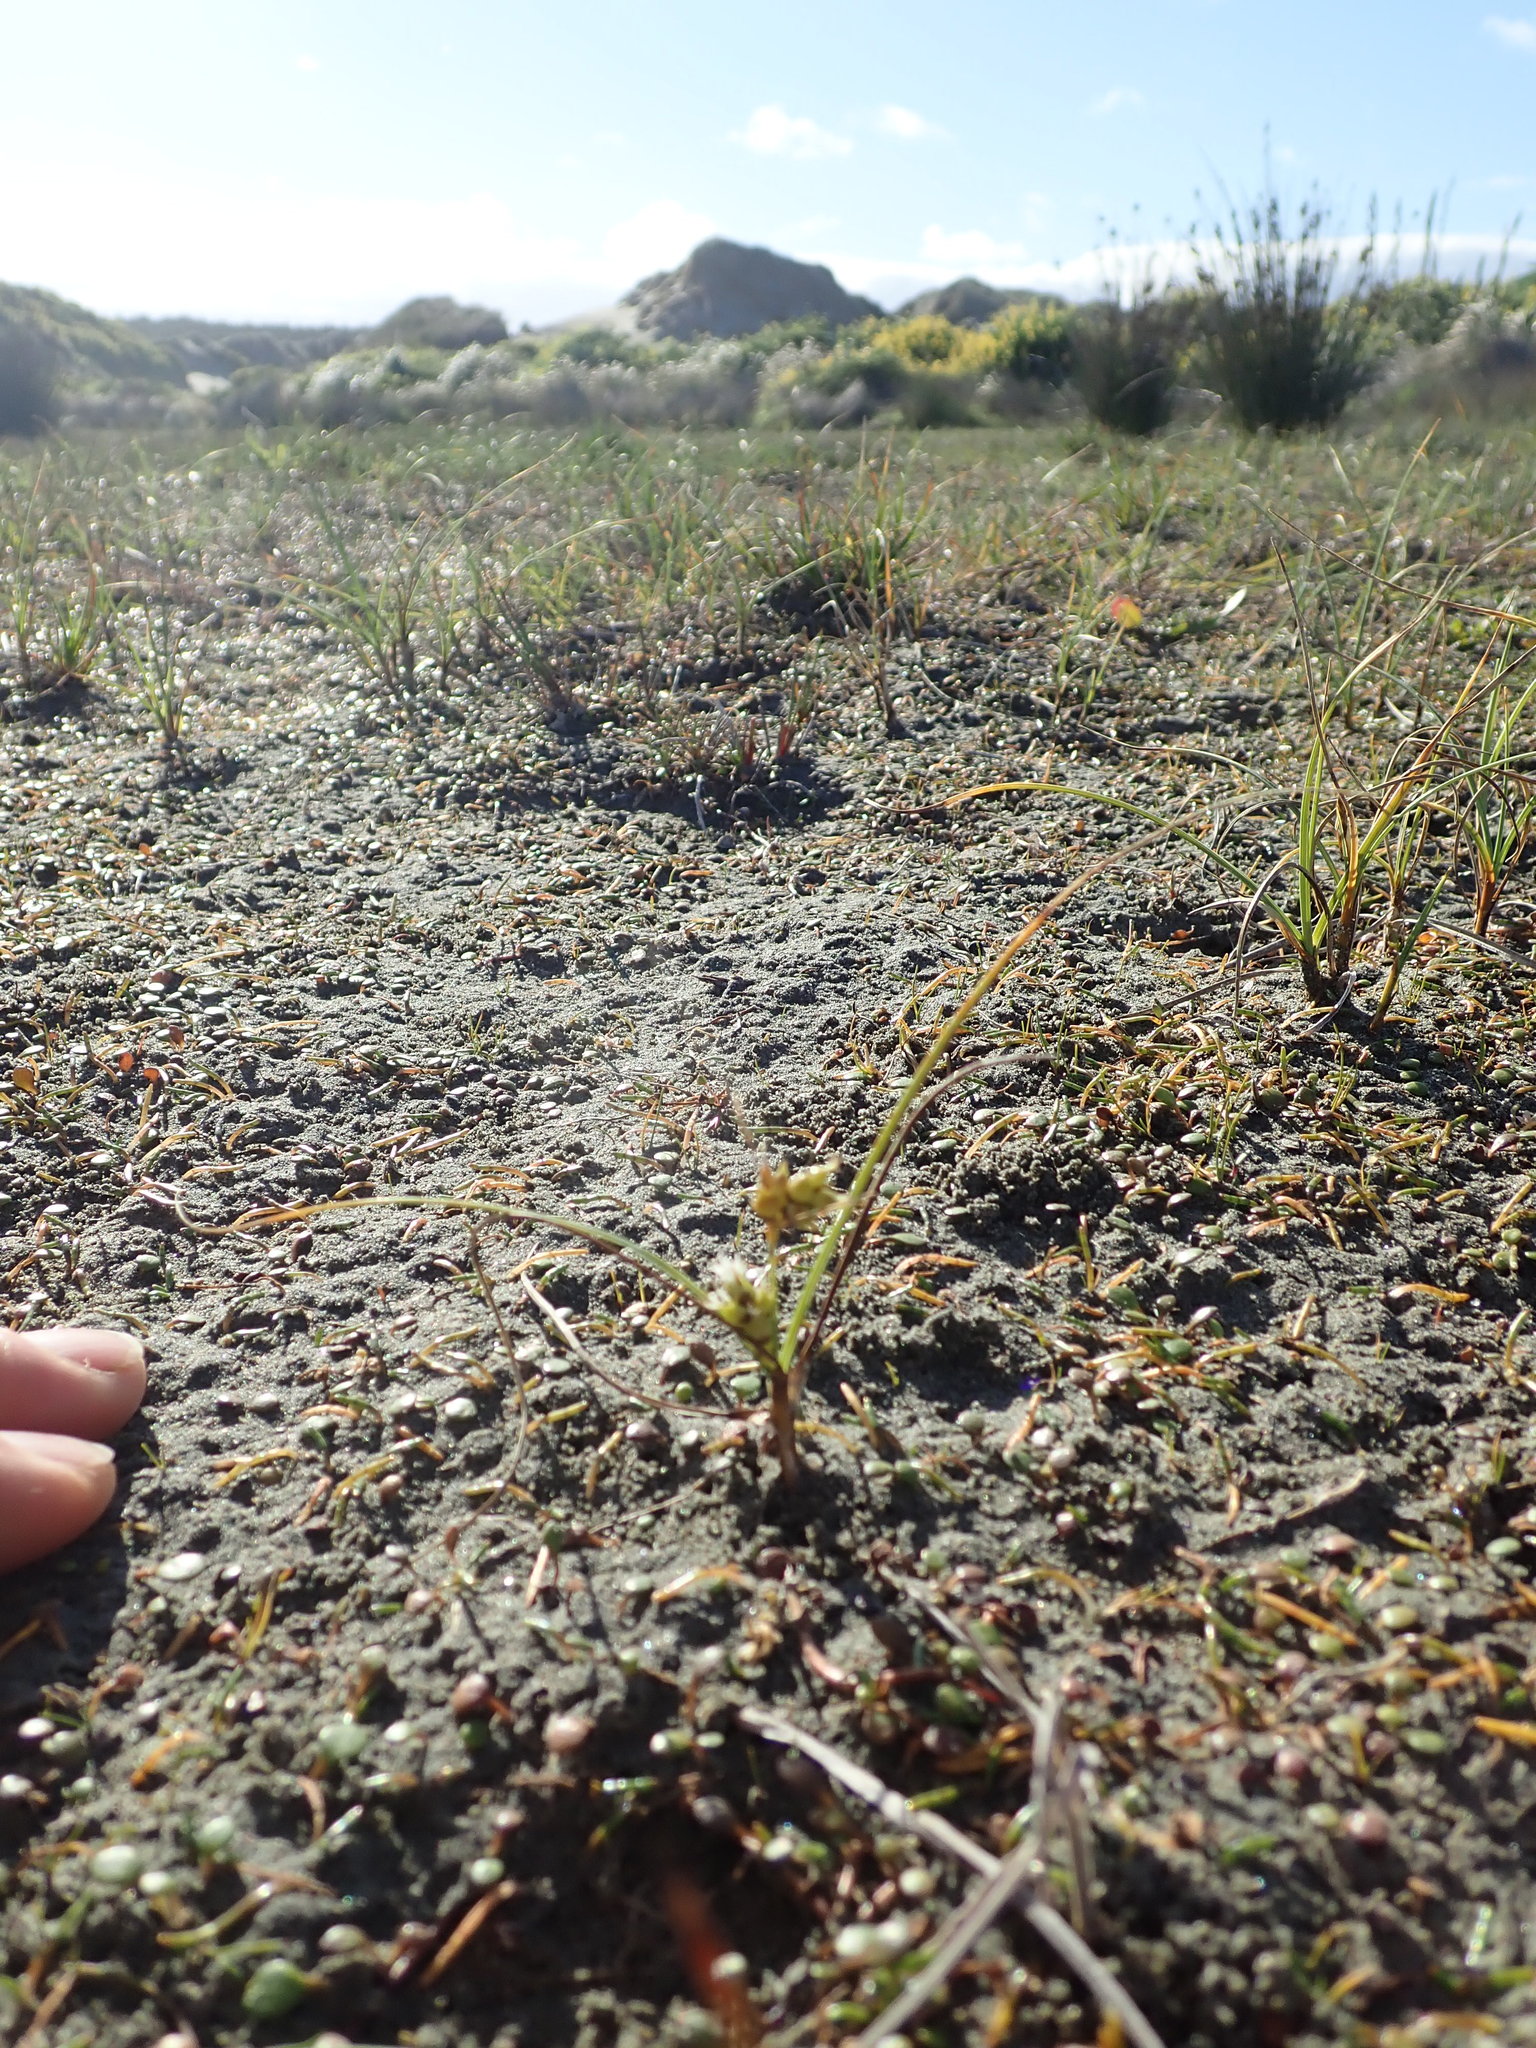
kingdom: Plantae
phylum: Tracheophyta
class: Liliopsida
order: Poales
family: Cyperaceae
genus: Carex
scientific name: Carex pumila
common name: Dwarf sedge
